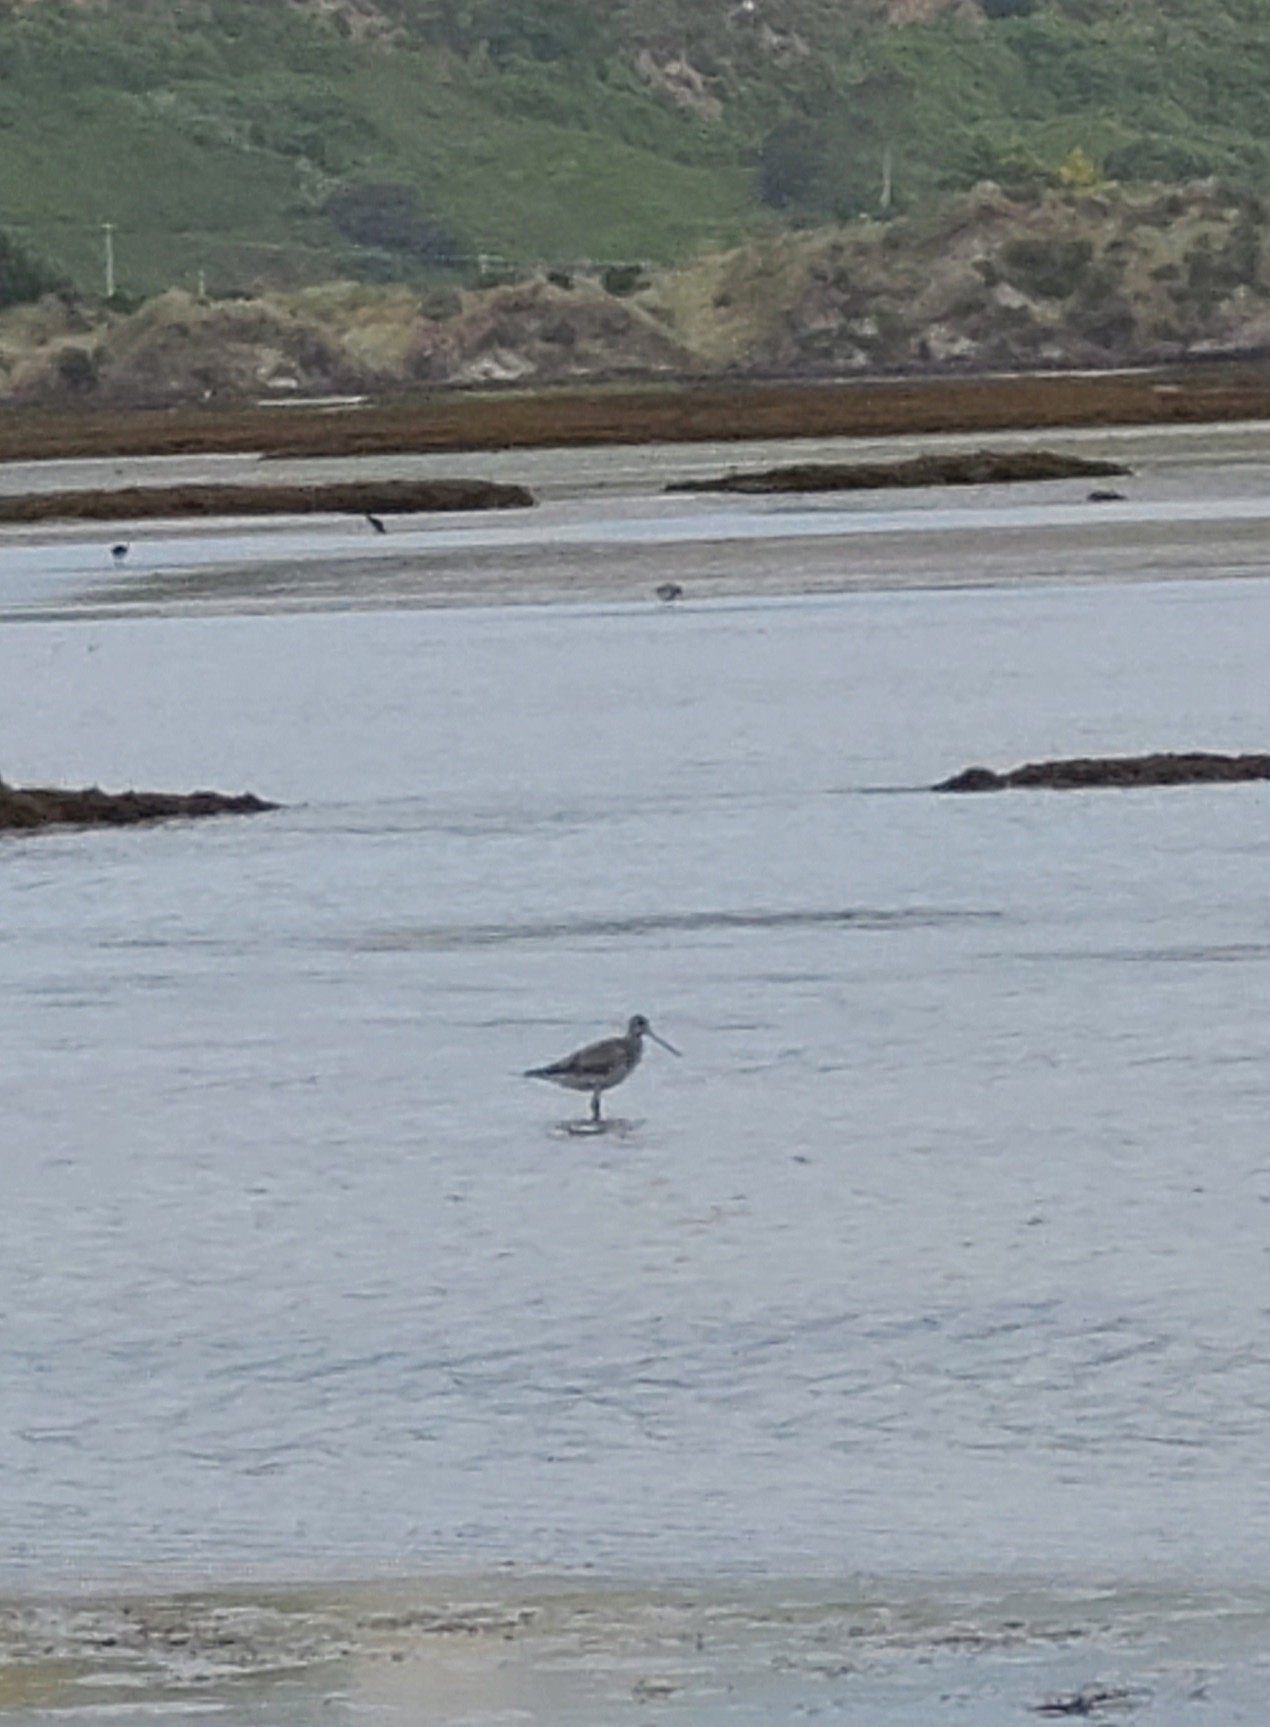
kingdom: Animalia
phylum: Chordata
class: Aves
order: Charadriiformes
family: Scolopacidae
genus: Limosa
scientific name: Limosa lapponica
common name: Bar-tailed godwit
